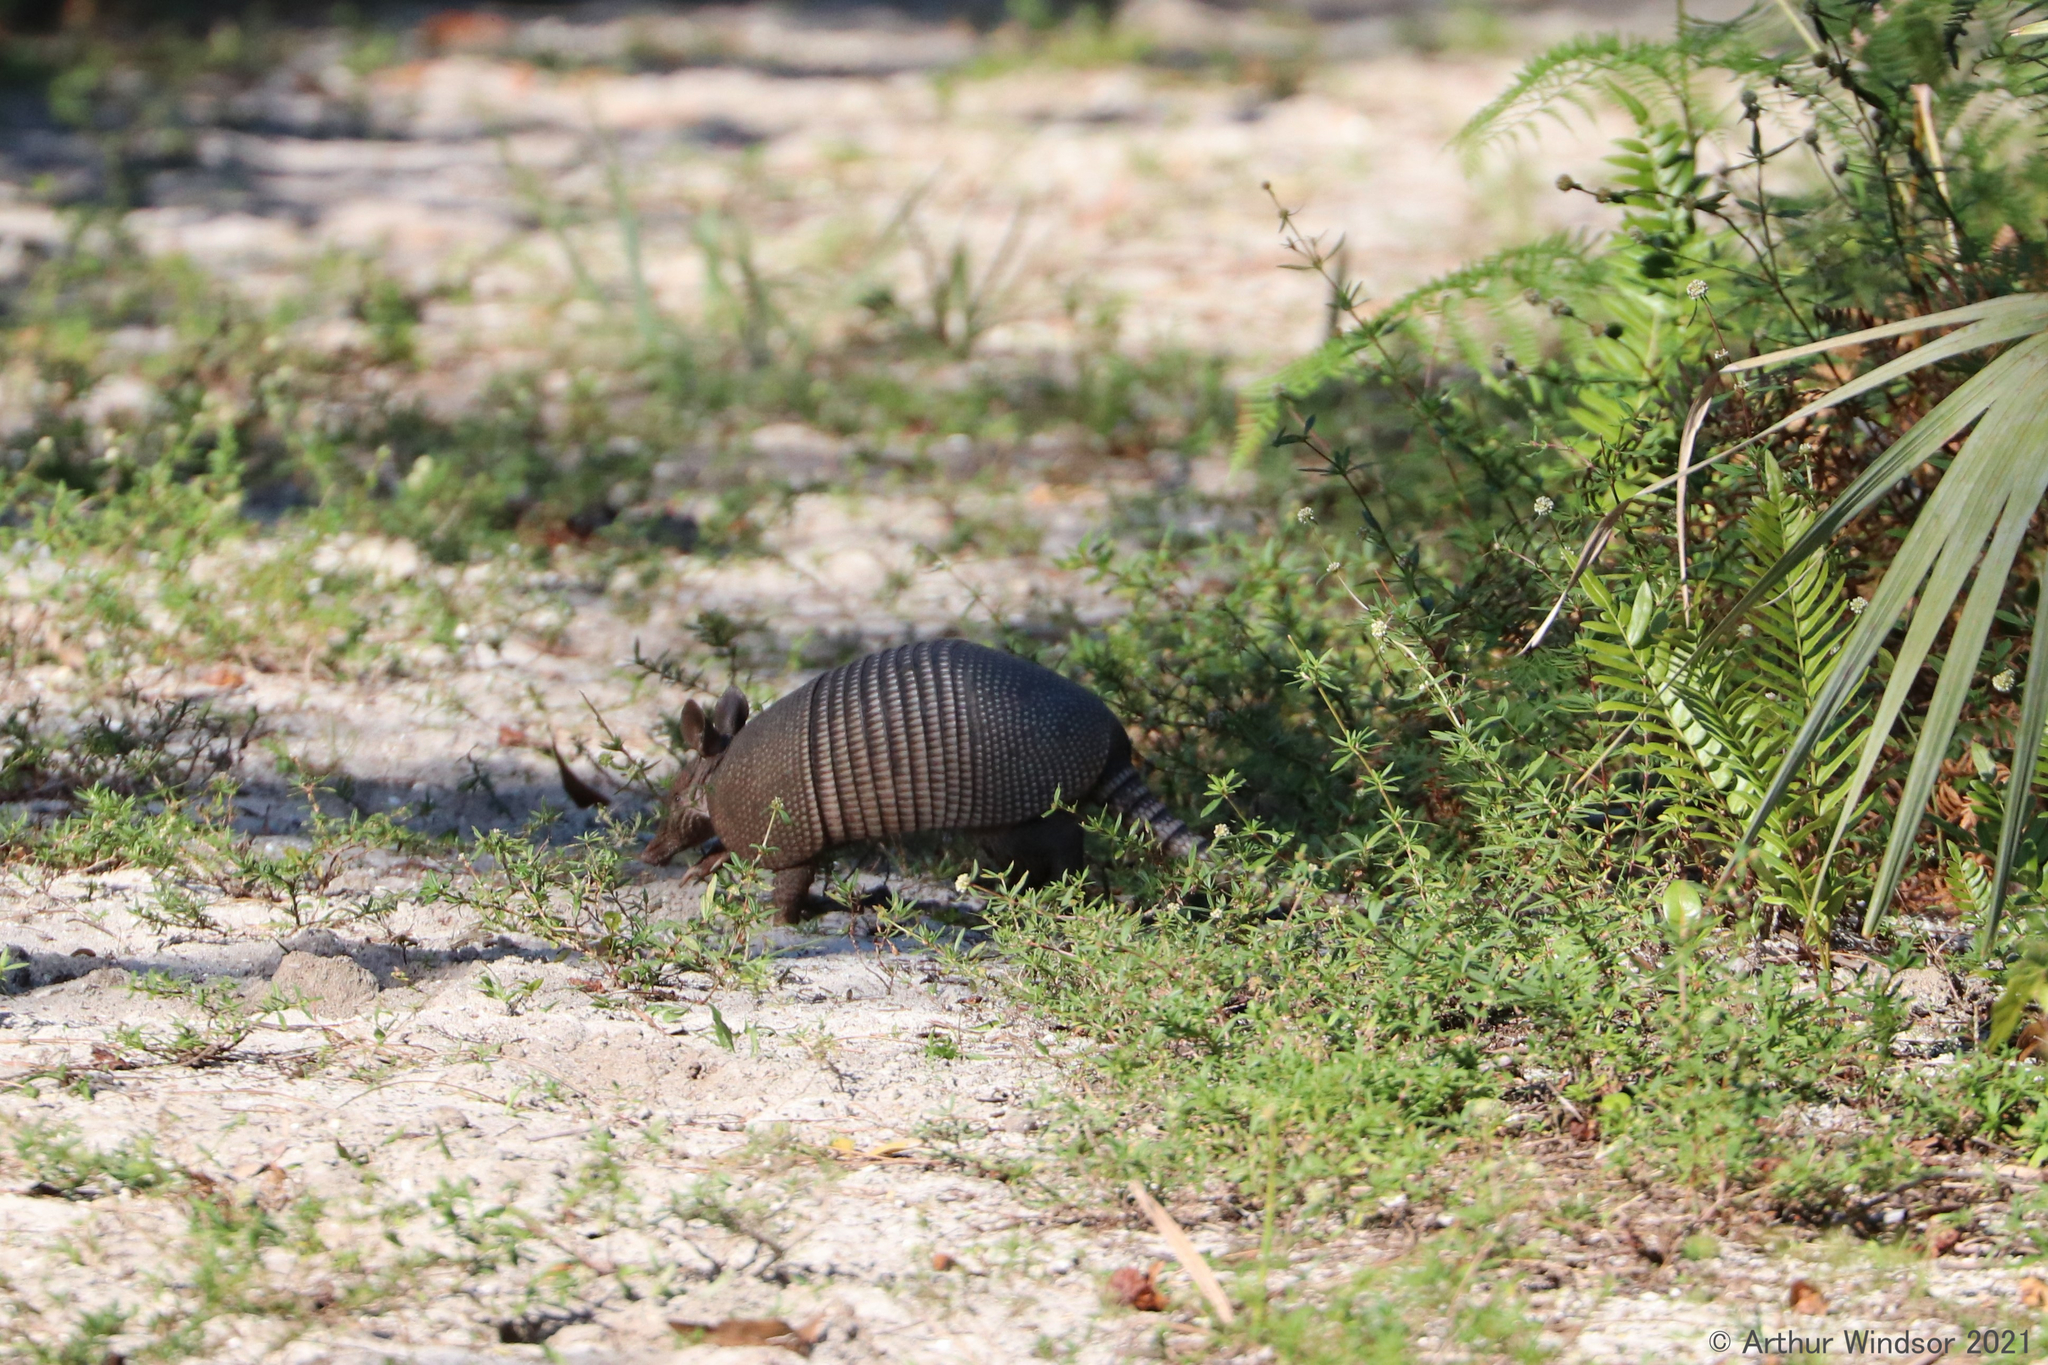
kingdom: Animalia
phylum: Chordata
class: Mammalia
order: Cingulata
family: Dasypodidae
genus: Dasypus
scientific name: Dasypus novemcinctus
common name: Nine-banded armadillo
